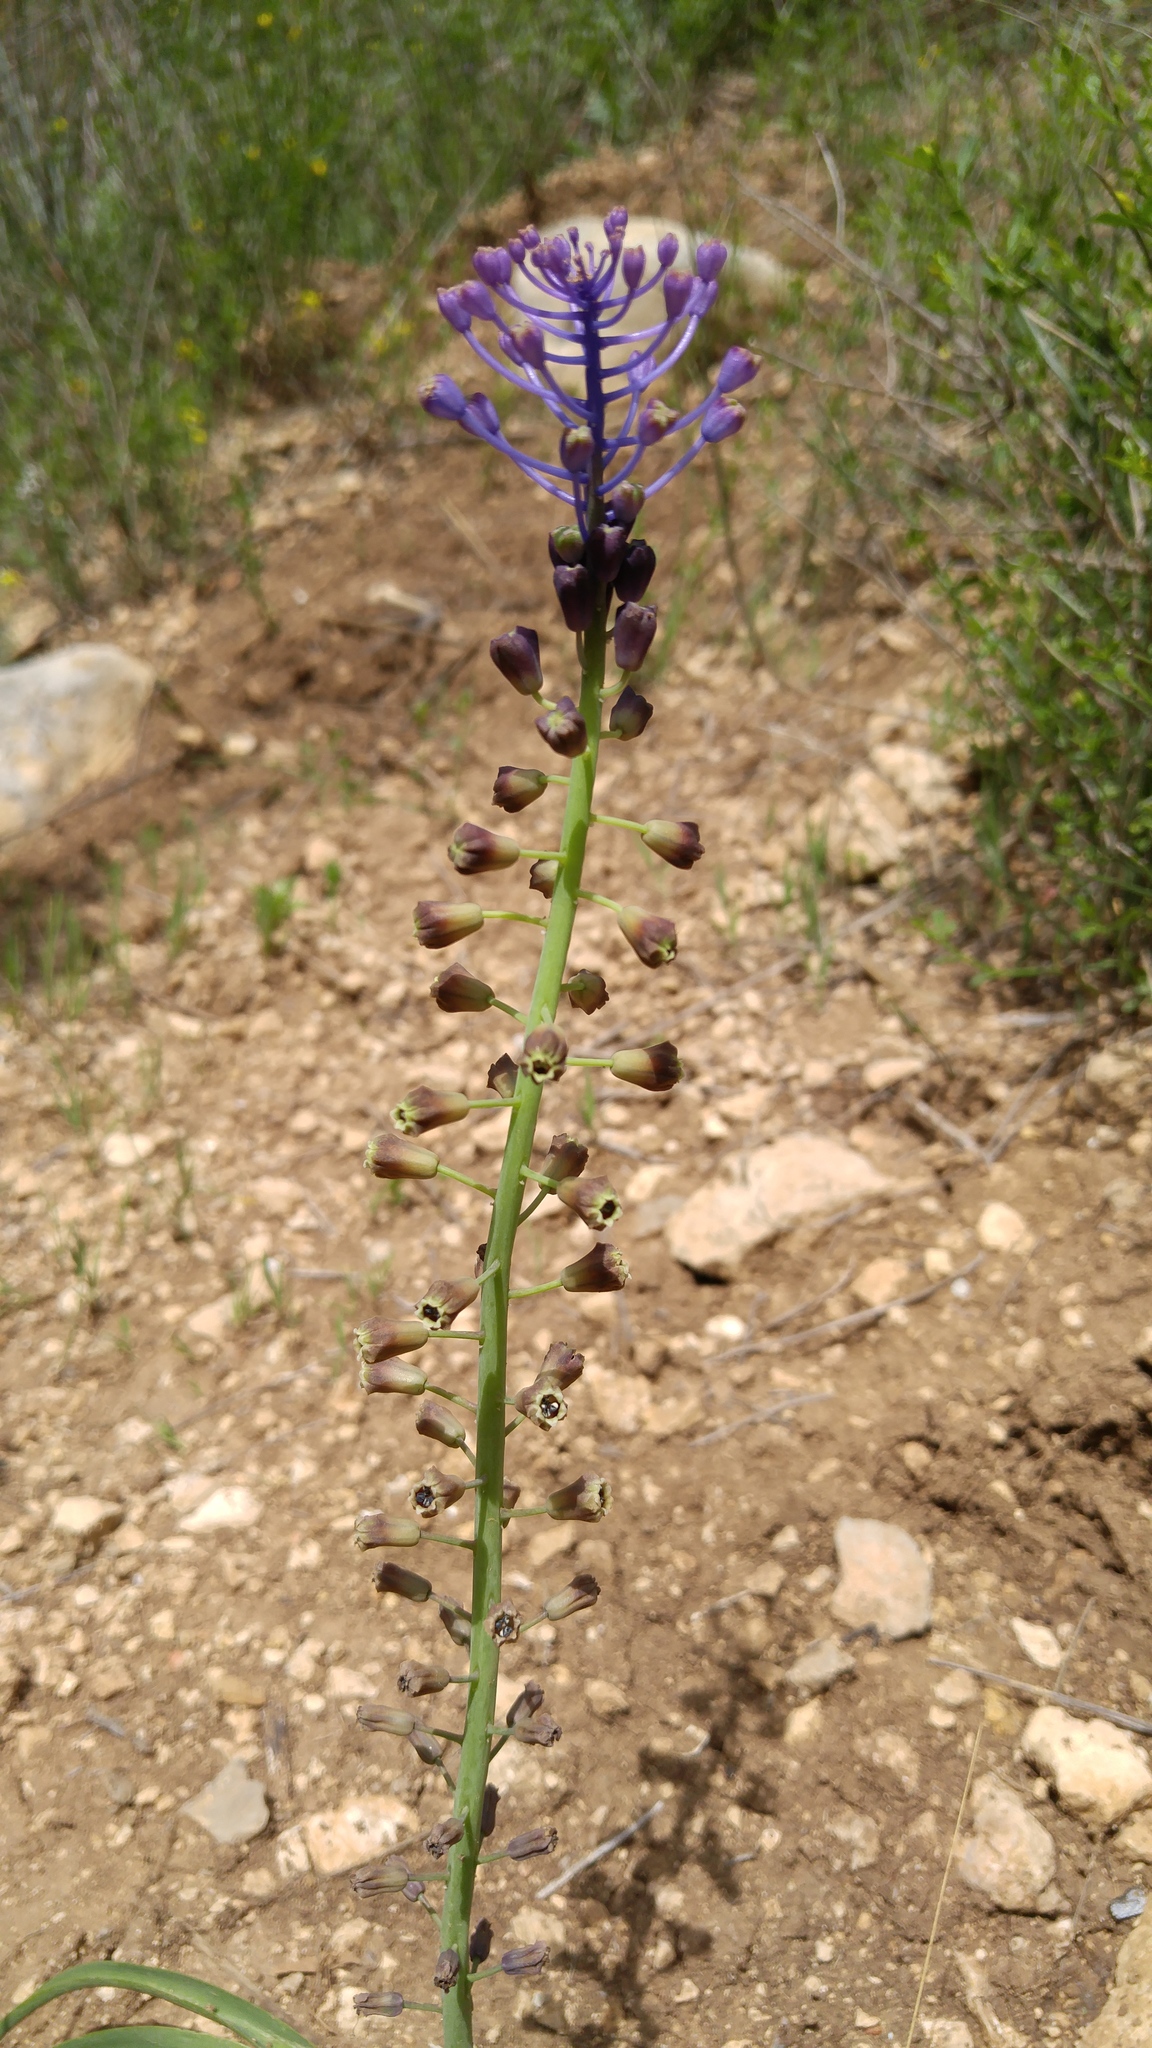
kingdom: Plantae
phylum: Tracheophyta
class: Liliopsida
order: Asparagales
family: Asparagaceae
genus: Muscari
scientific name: Muscari comosum
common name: Tassel hyacinth
